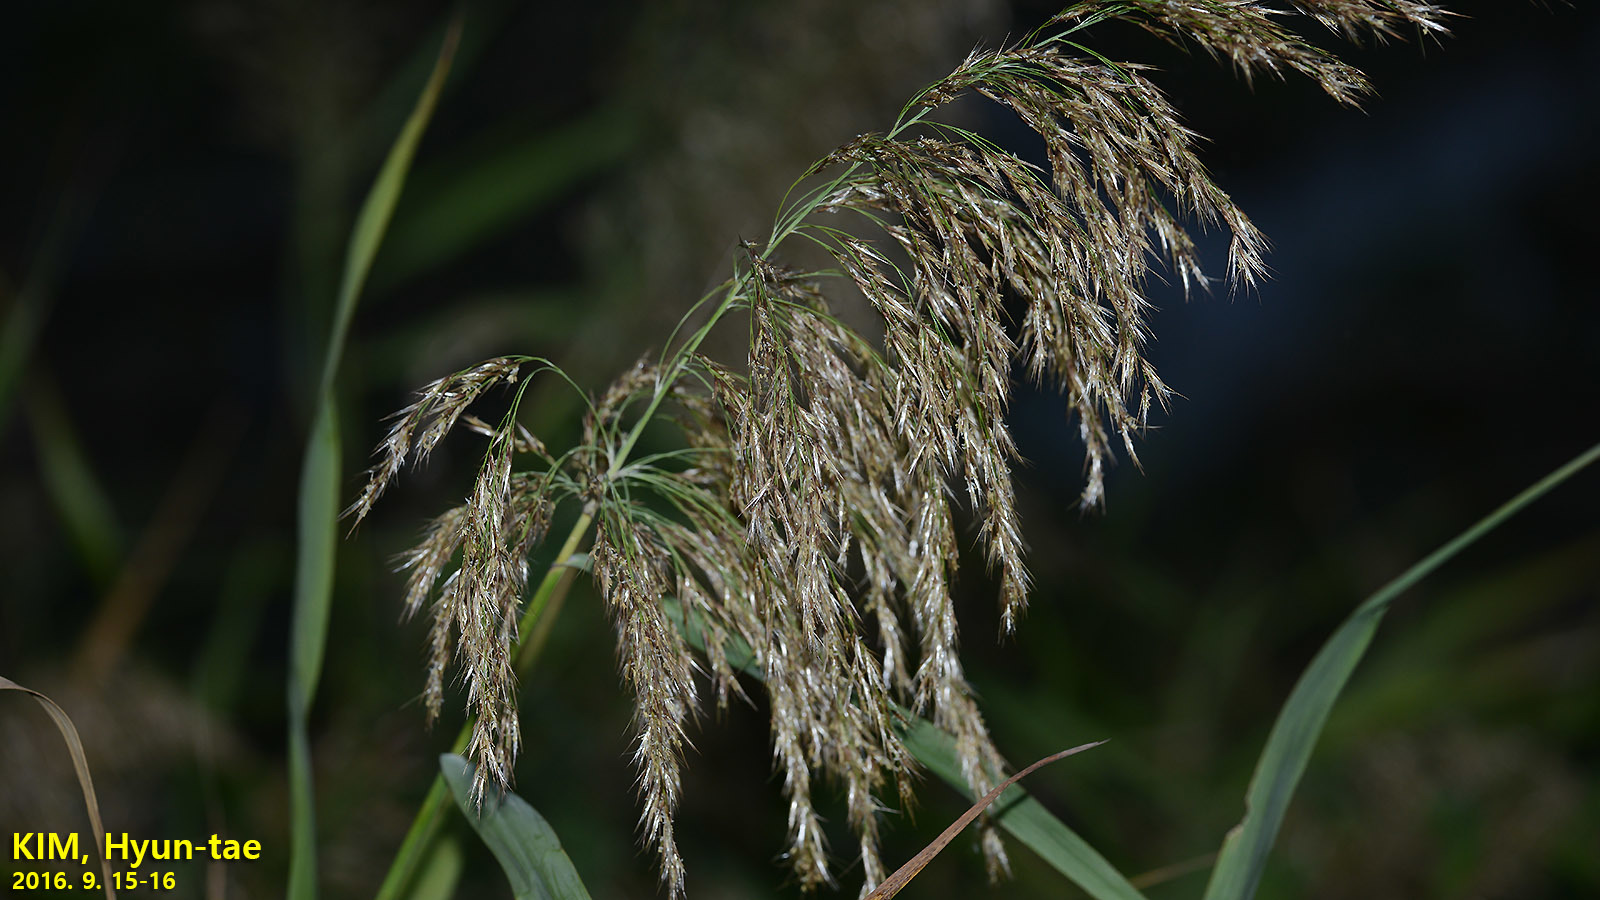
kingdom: Plantae
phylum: Tracheophyta
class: Liliopsida
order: Poales
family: Poaceae
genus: Phragmites
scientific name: Phragmites australis
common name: Common reed
